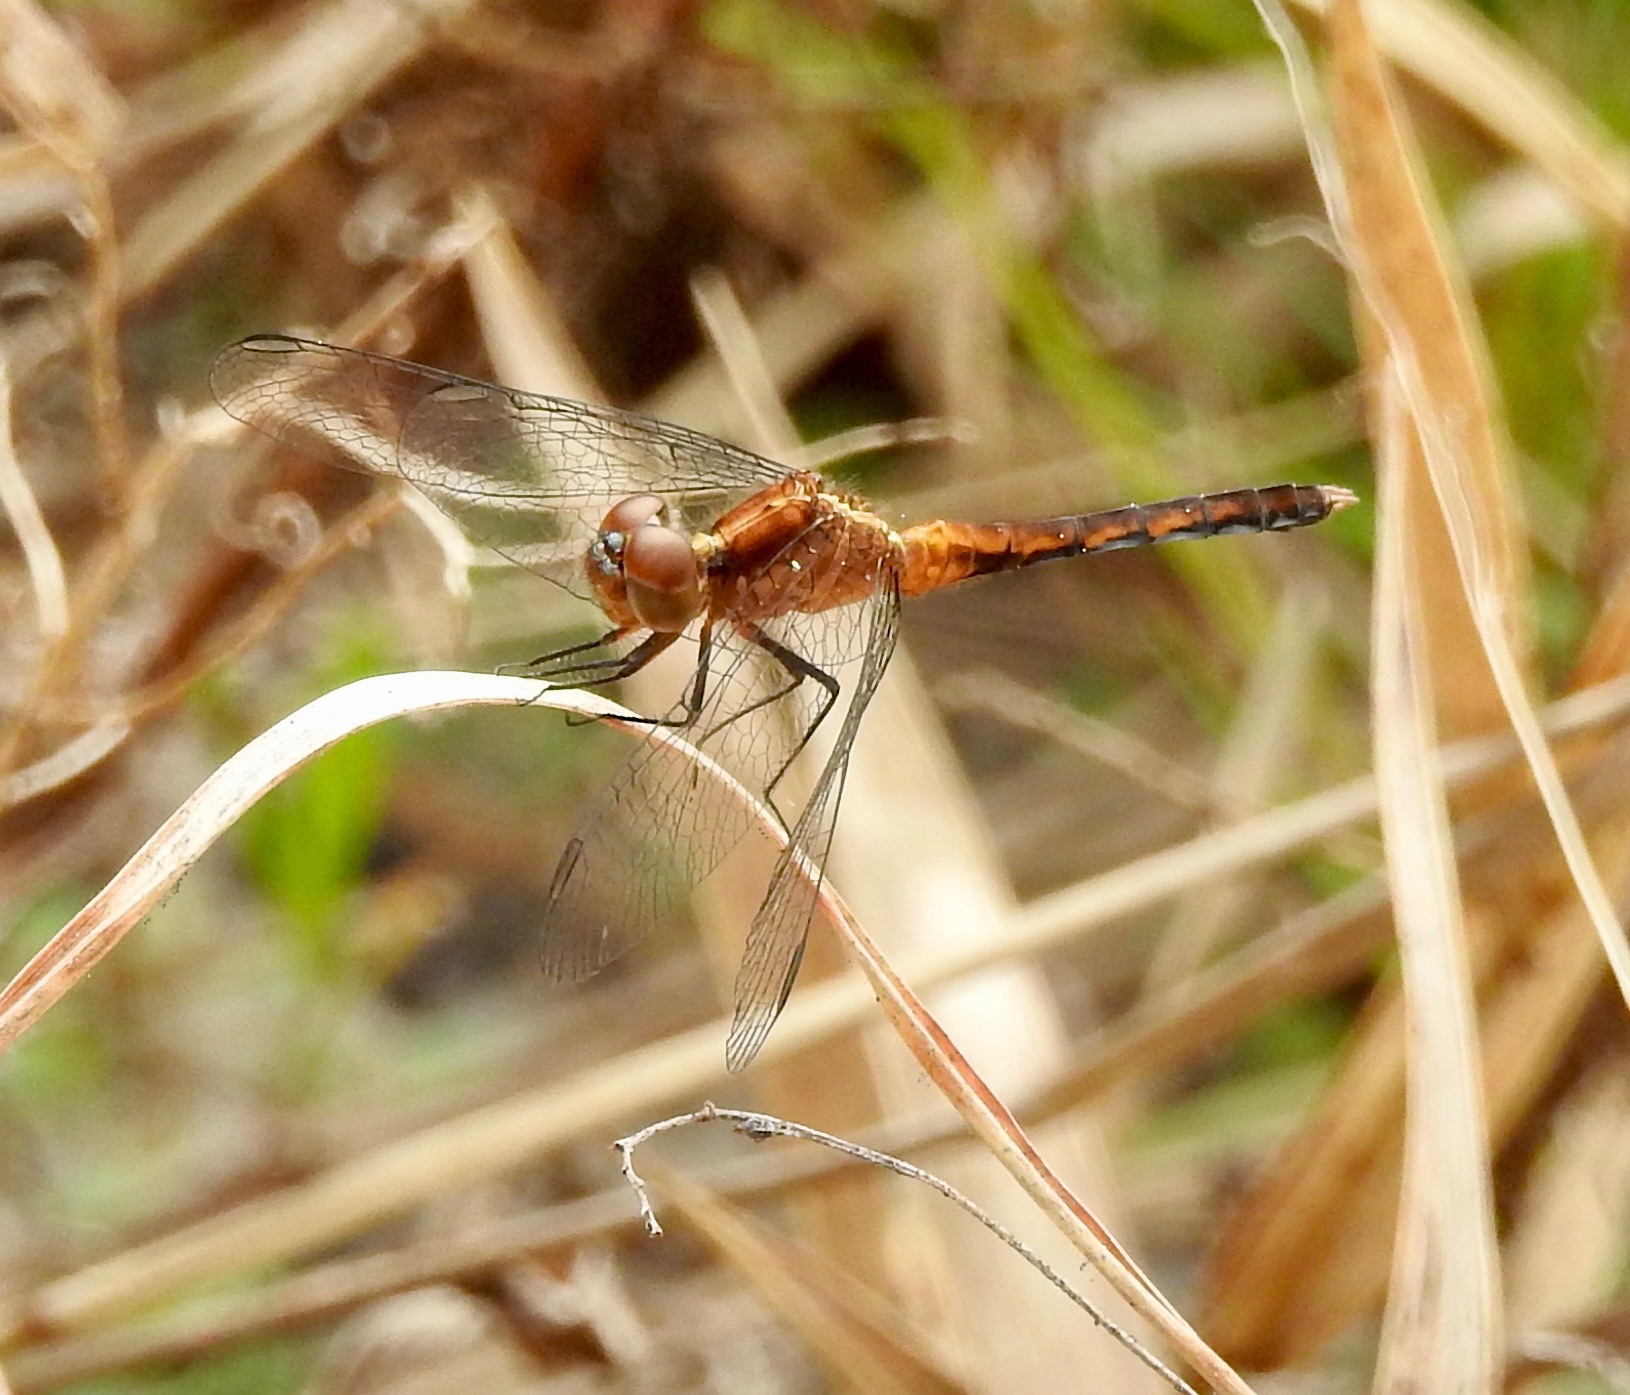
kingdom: Animalia
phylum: Arthropoda
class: Insecta
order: Odonata
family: Libellulidae
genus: Erythrodiplax
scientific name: Erythrodiplax minuscula
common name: Little blue dragonlet
